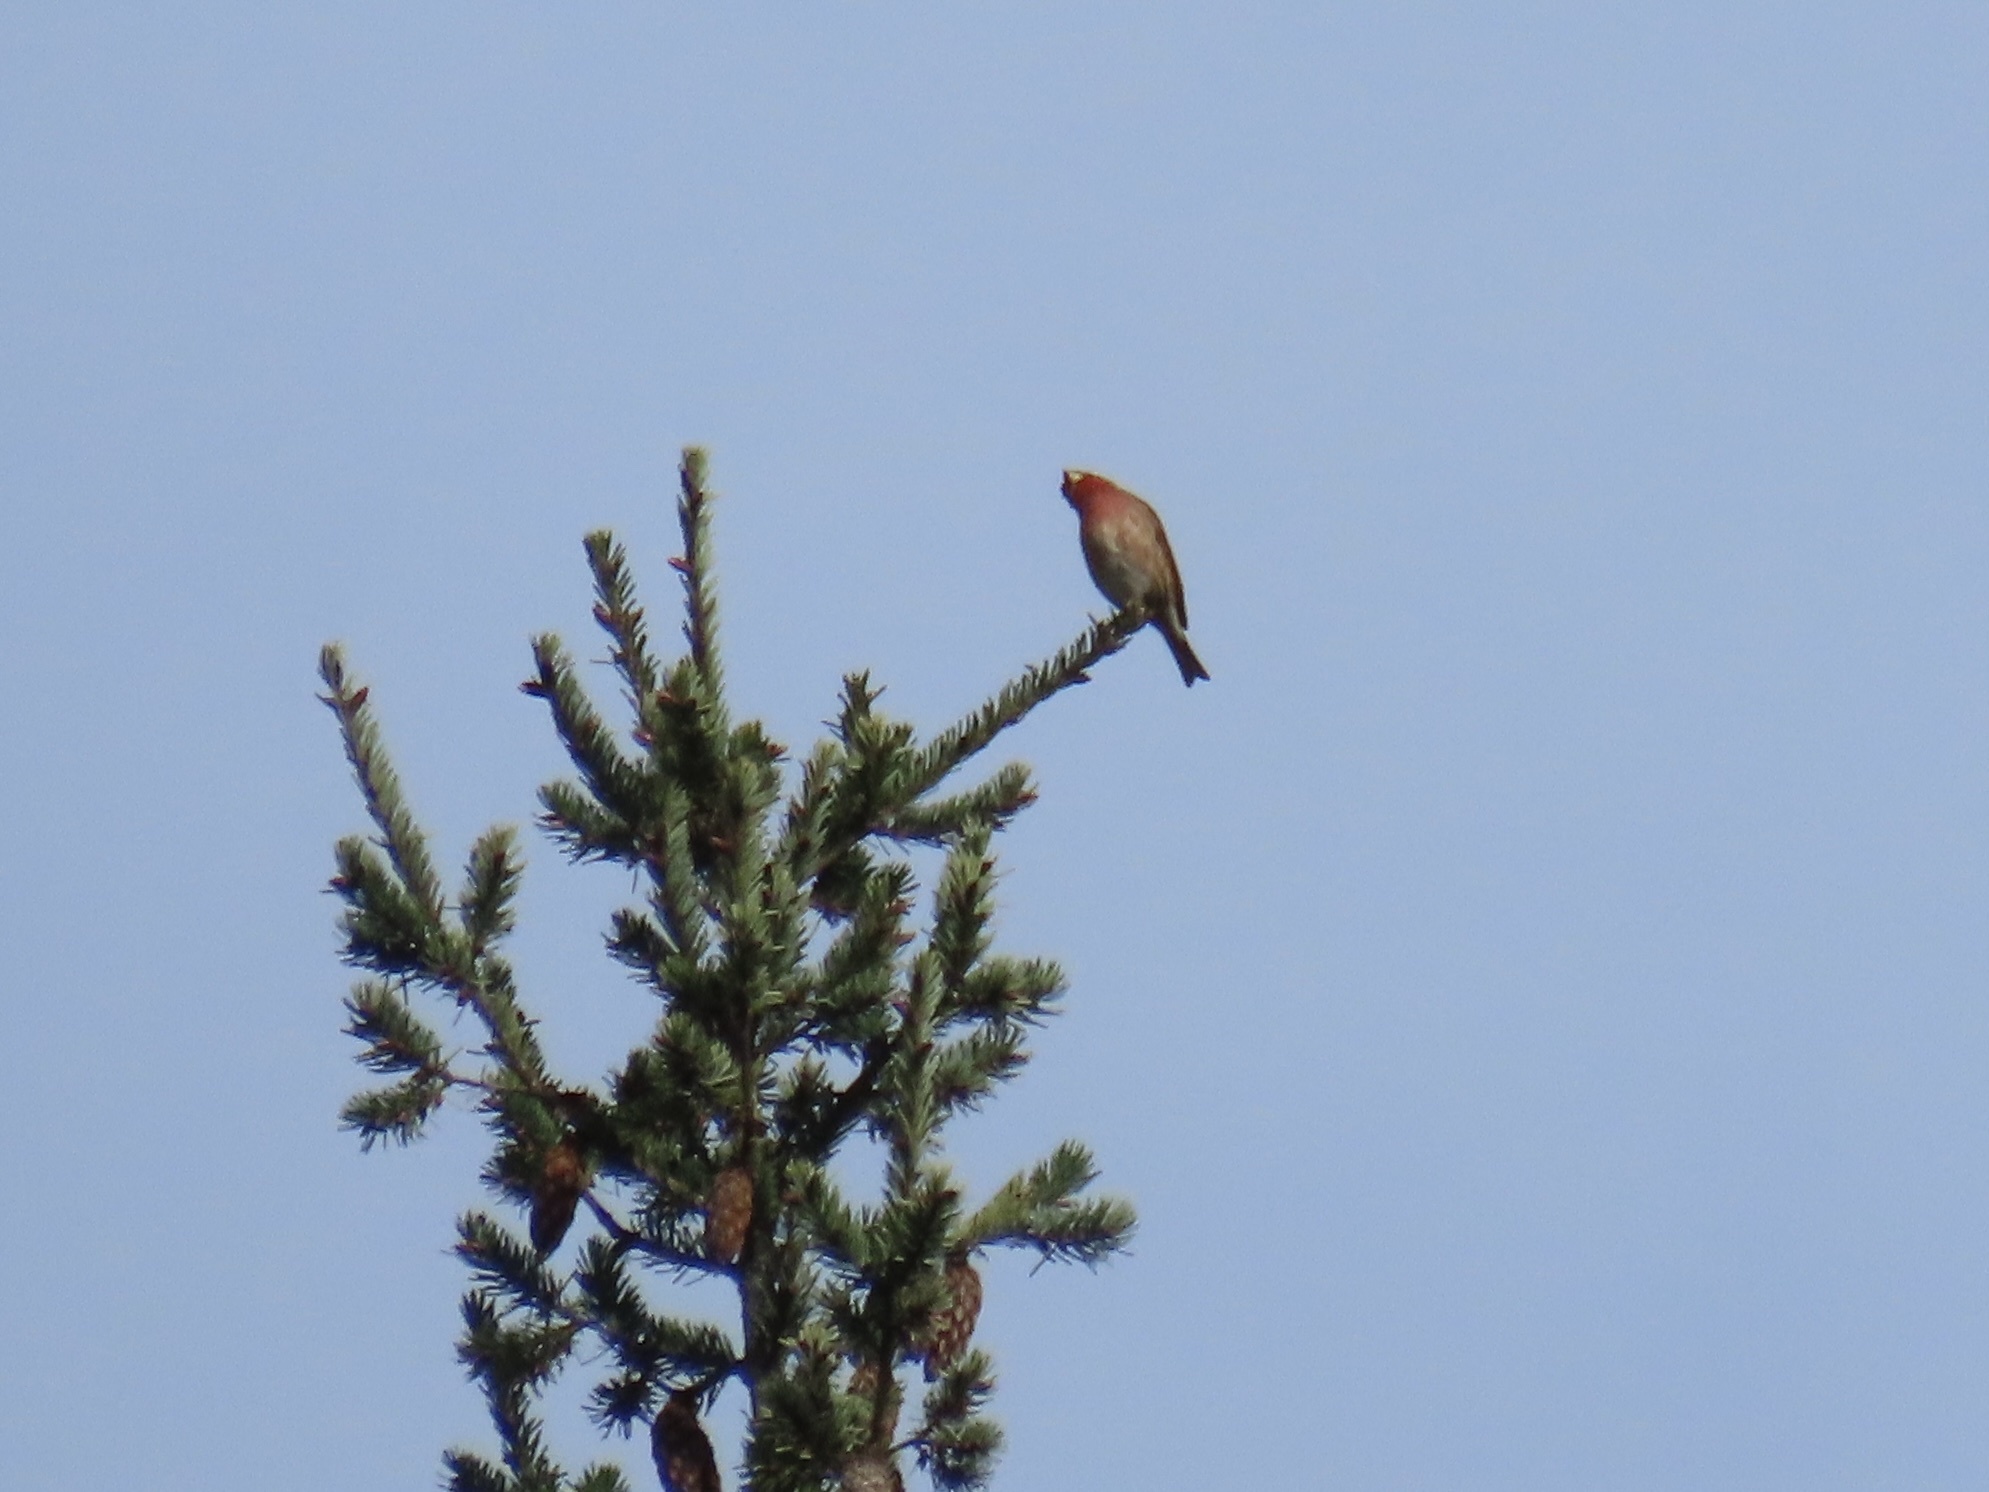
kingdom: Animalia
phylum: Chordata
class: Aves
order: Passeriformes
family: Fringillidae
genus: Haemorhous
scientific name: Haemorhous purpureus
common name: Purple finch
